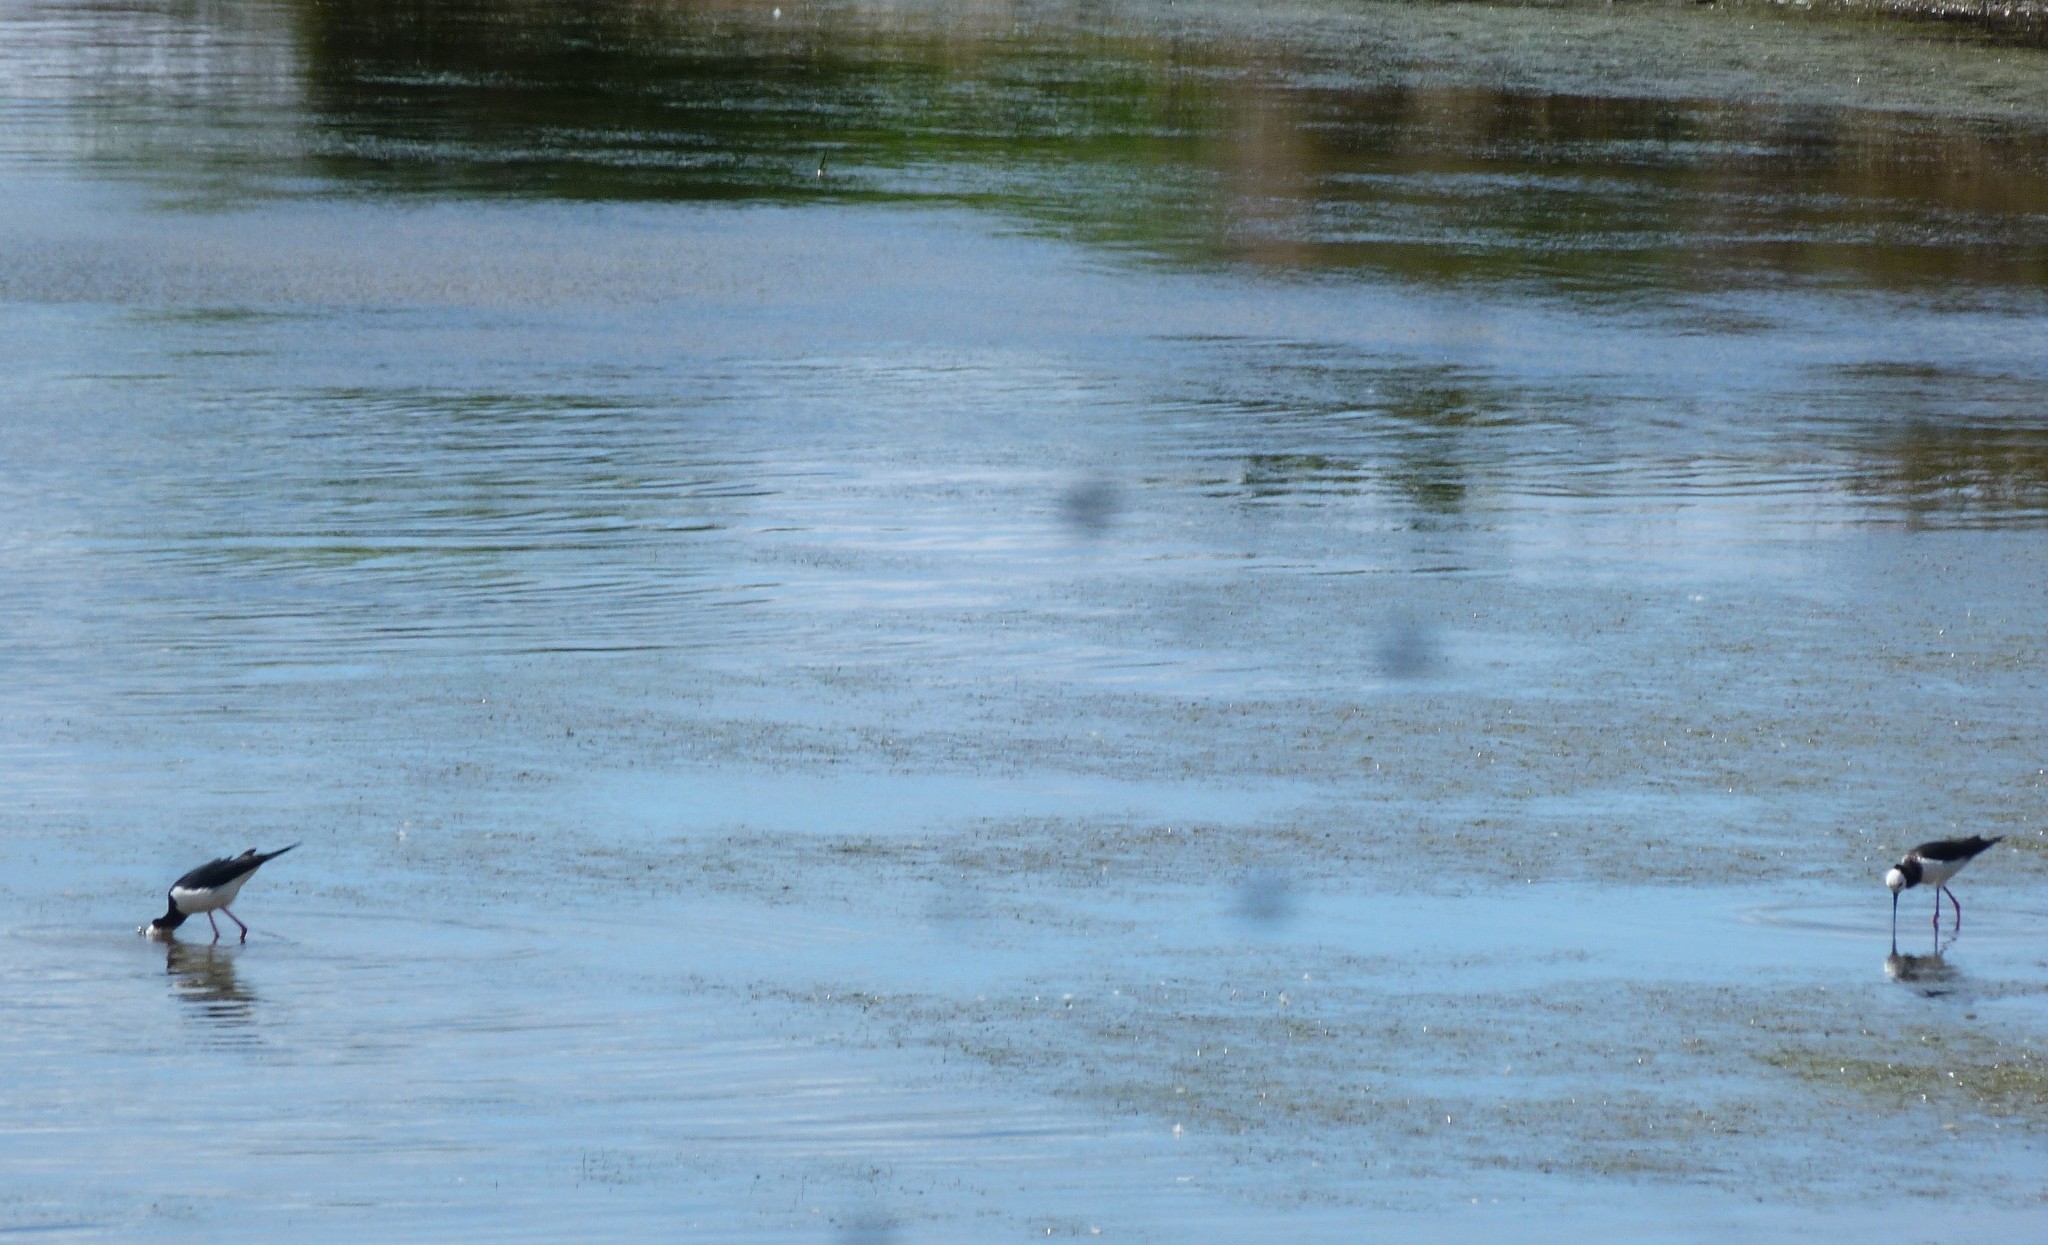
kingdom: Animalia
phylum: Chordata
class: Aves
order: Charadriiformes
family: Recurvirostridae
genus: Himantopus
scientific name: Himantopus leucocephalus
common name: White-headed stilt
